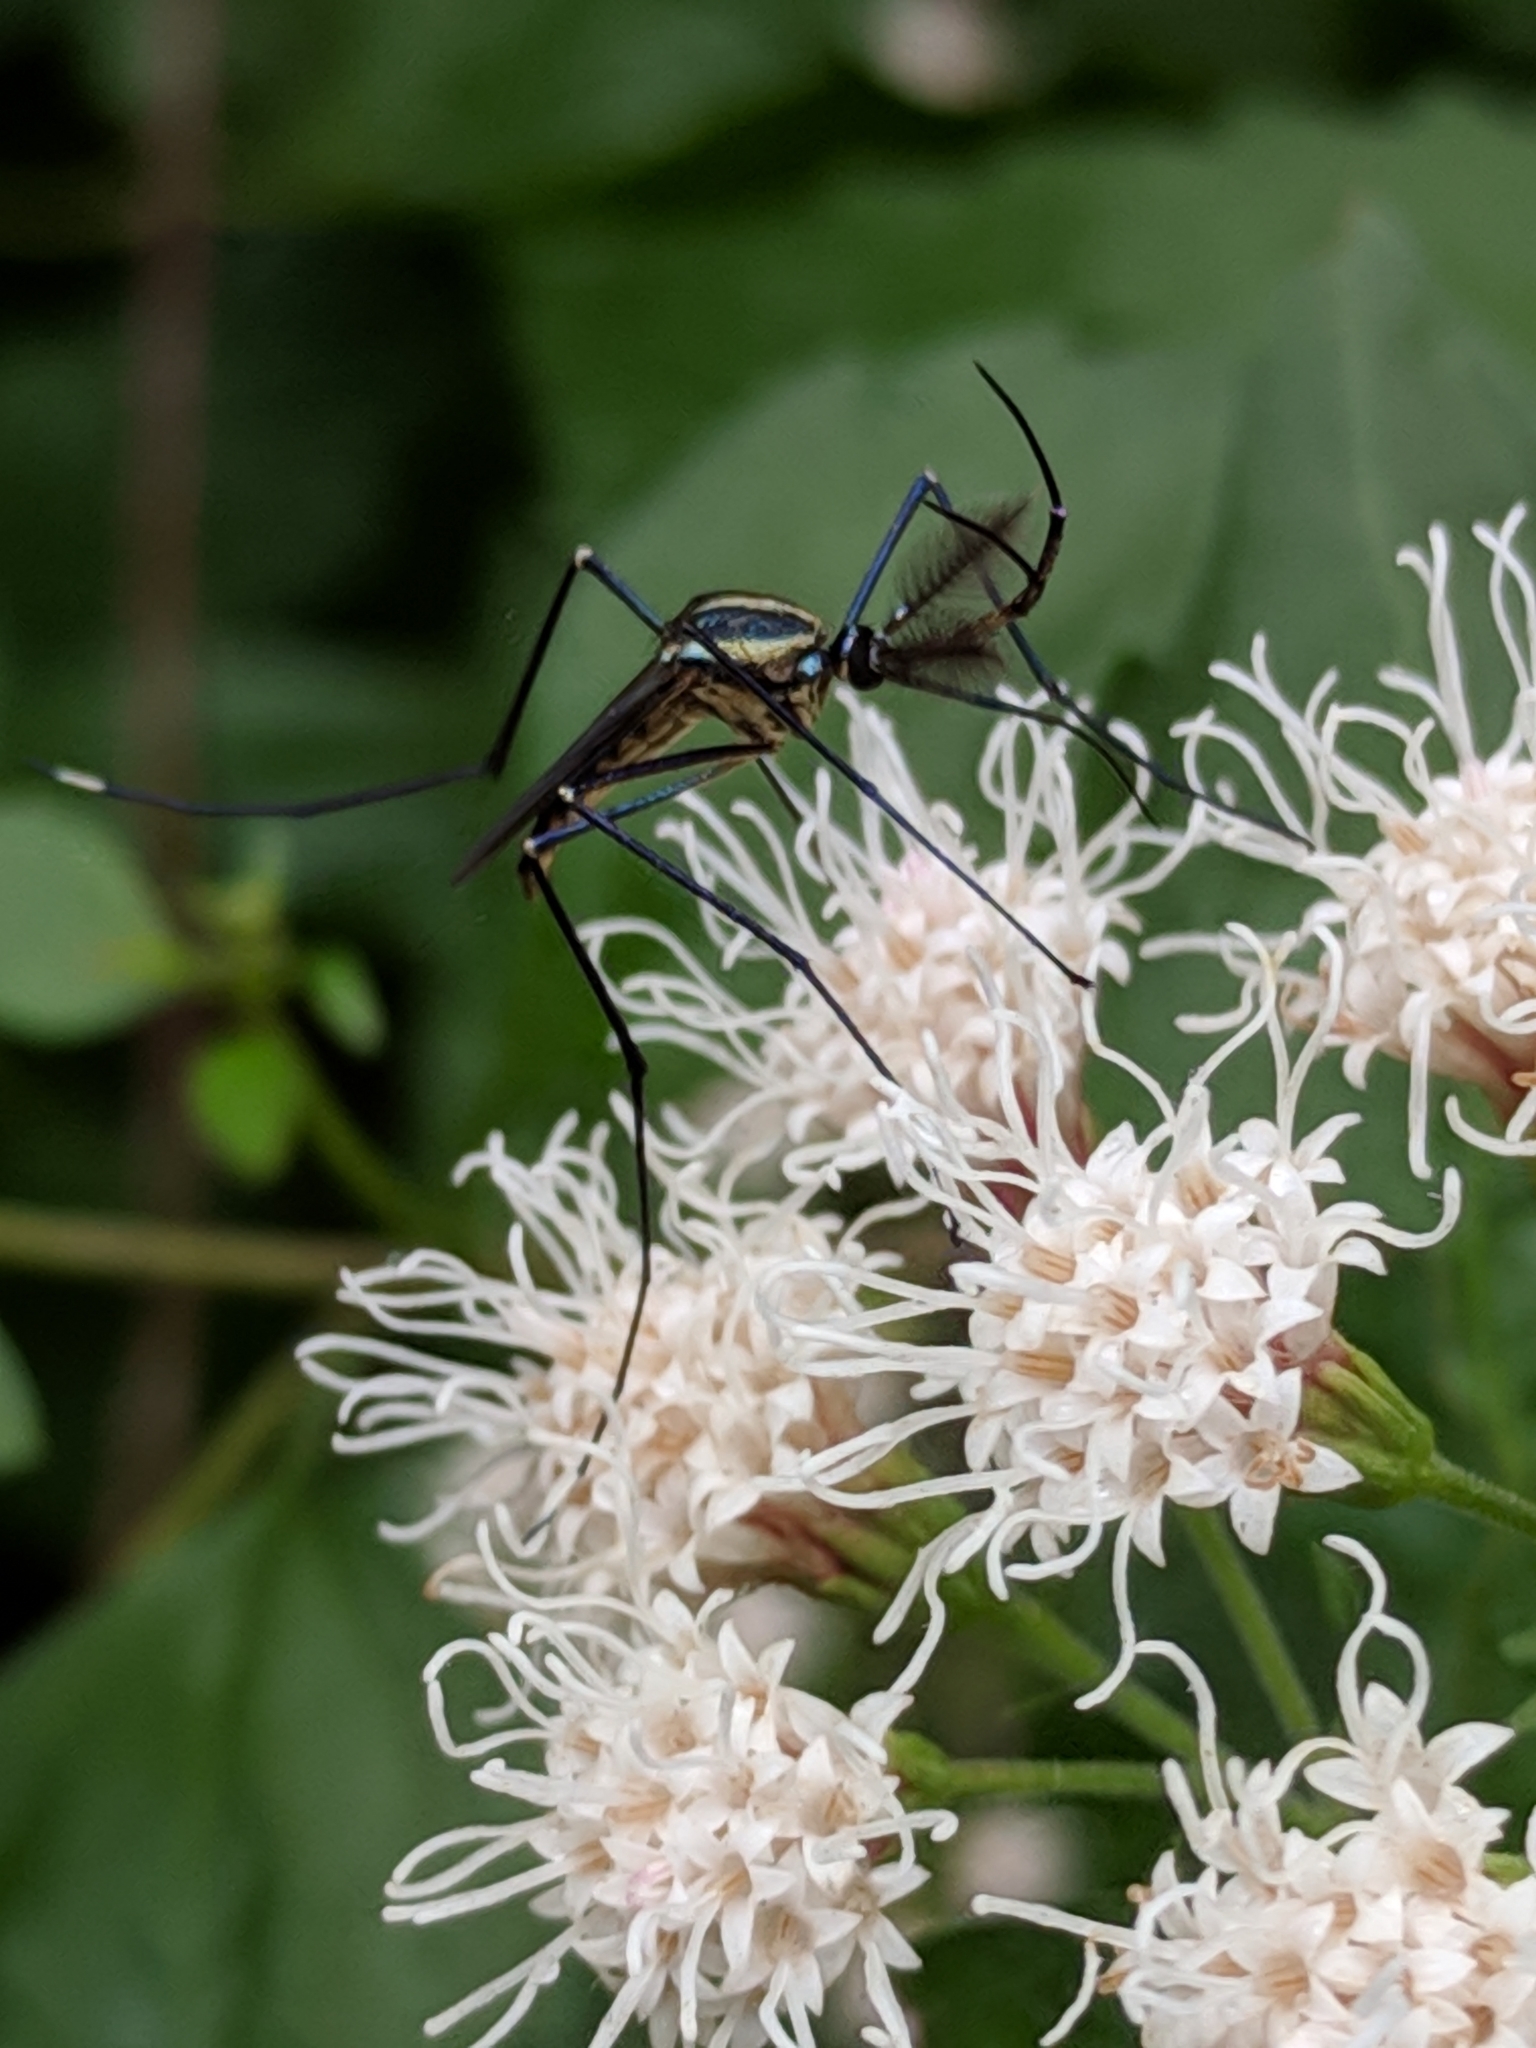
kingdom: Animalia
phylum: Arthropoda
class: Insecta
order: Diptera
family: Culicidae
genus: Toxorhynchites
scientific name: Toxorhynchites rutilus
